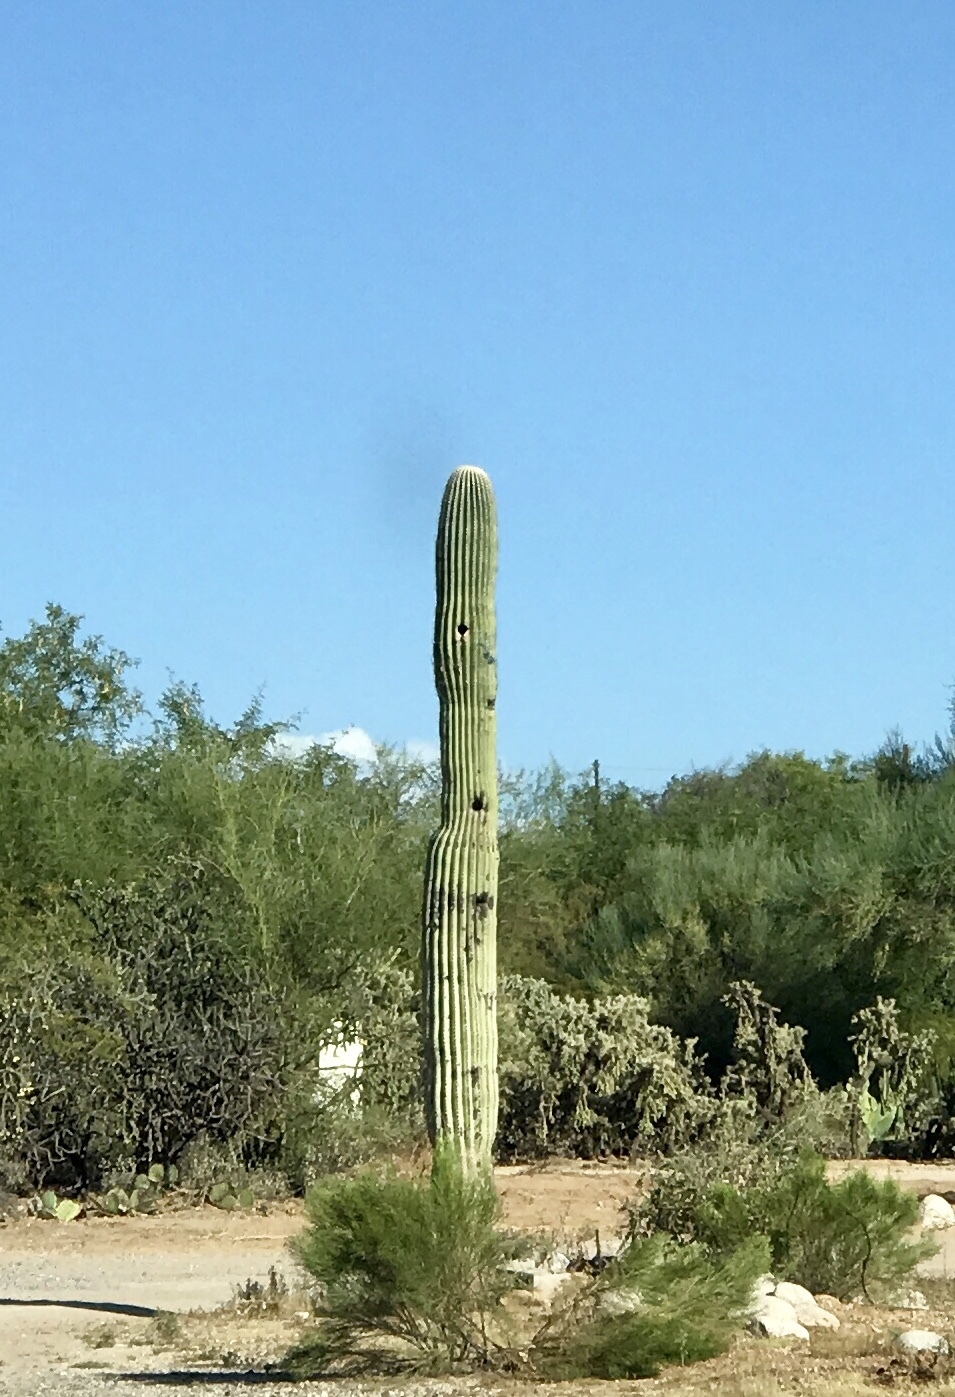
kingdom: Plantae
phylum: Tracheophyta
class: Magnoliopsida
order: Caryophyllales
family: Cactaceae
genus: Carnegiea
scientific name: Carnegiea gigantea
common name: Saguaro
